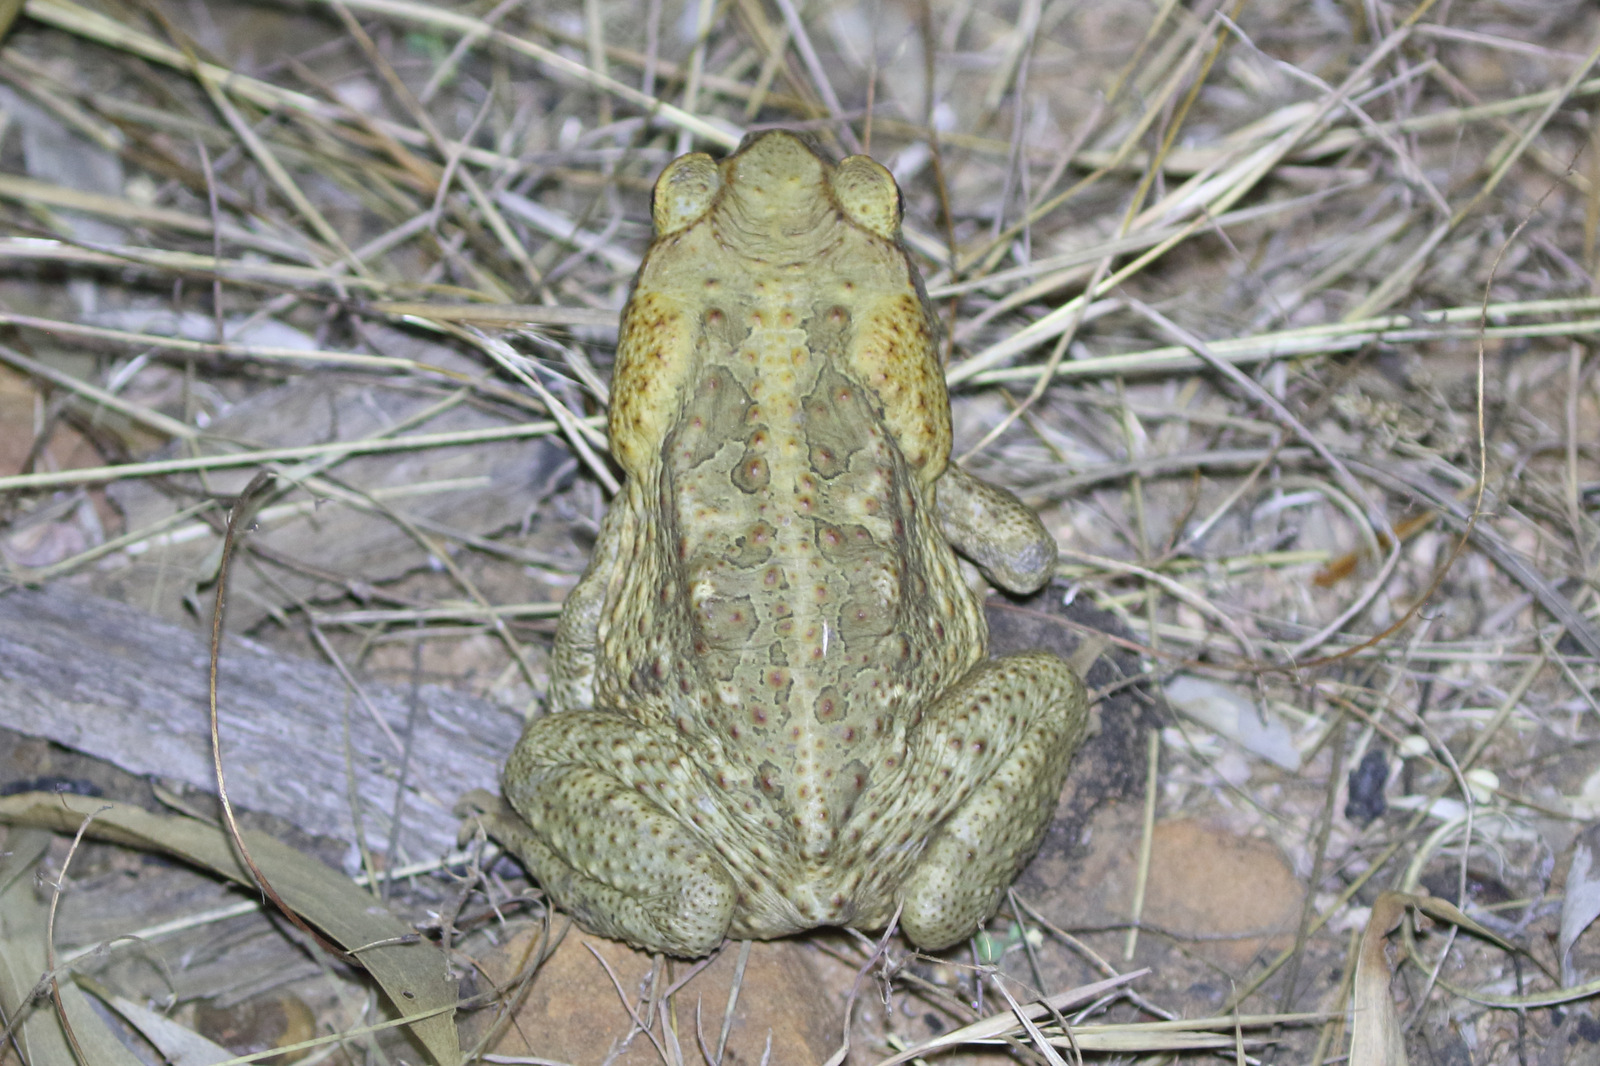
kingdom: Animalia
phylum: Chordata
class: Amphibia
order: Anura
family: Bufonidae
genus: Rhinella
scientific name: Rhinella marina
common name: Cane toad
